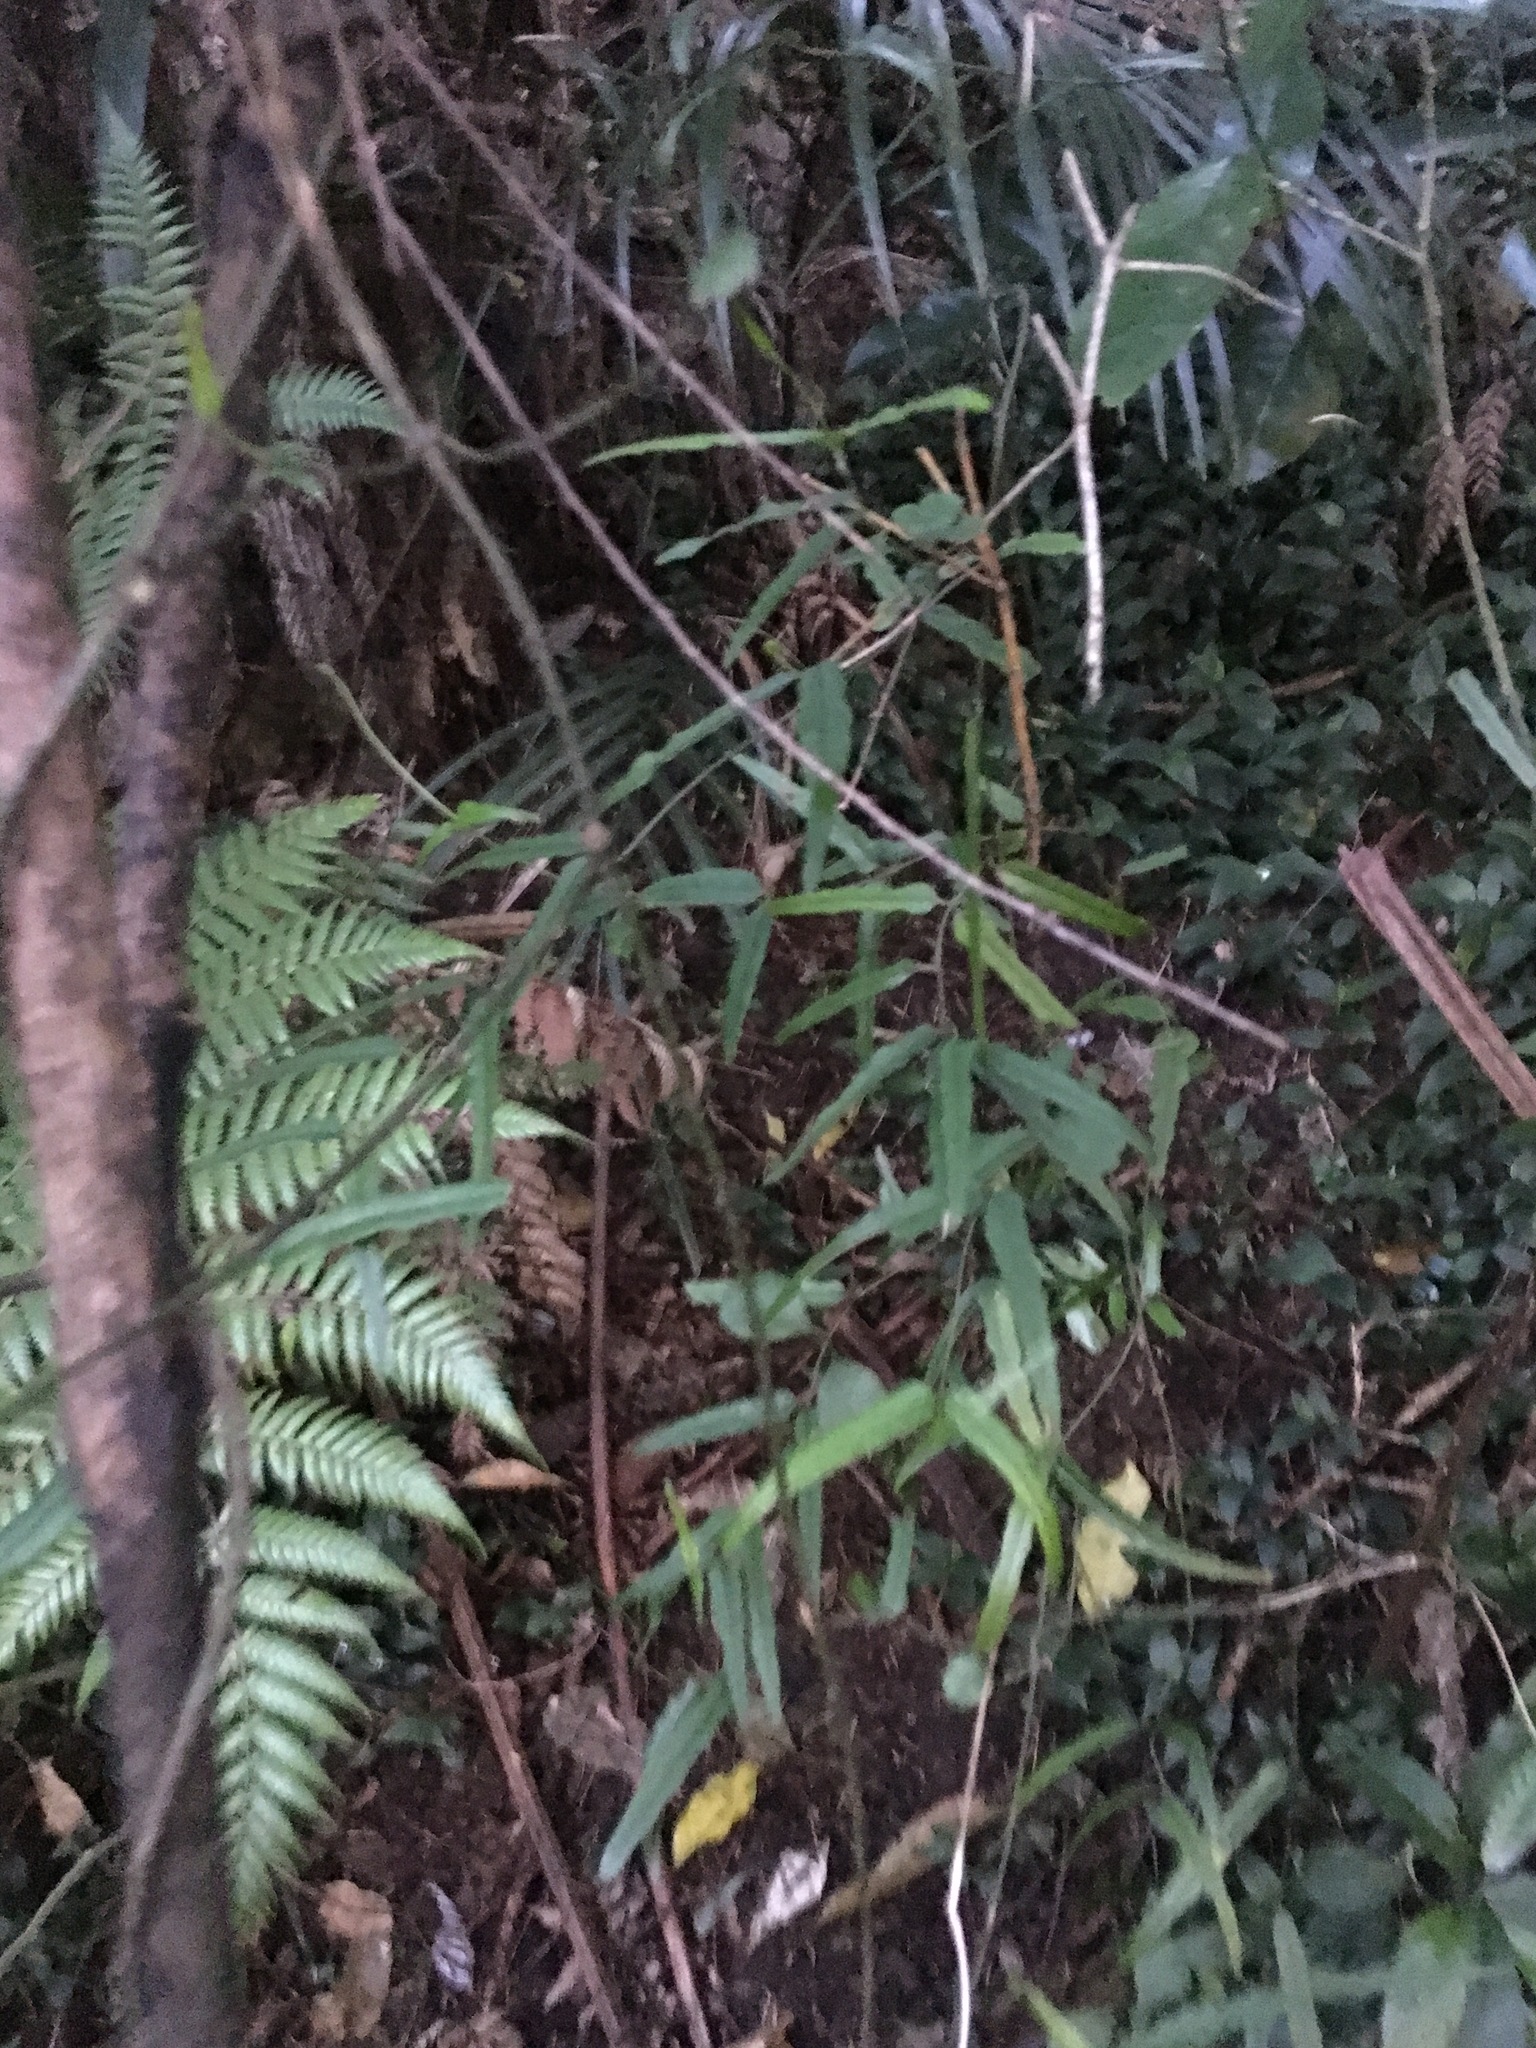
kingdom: Plantae
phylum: Tracheophyta
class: Magnoliopsida
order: Gentianales
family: Apocynaceae
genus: Parsonsia
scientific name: Parsonsia heterophylla
